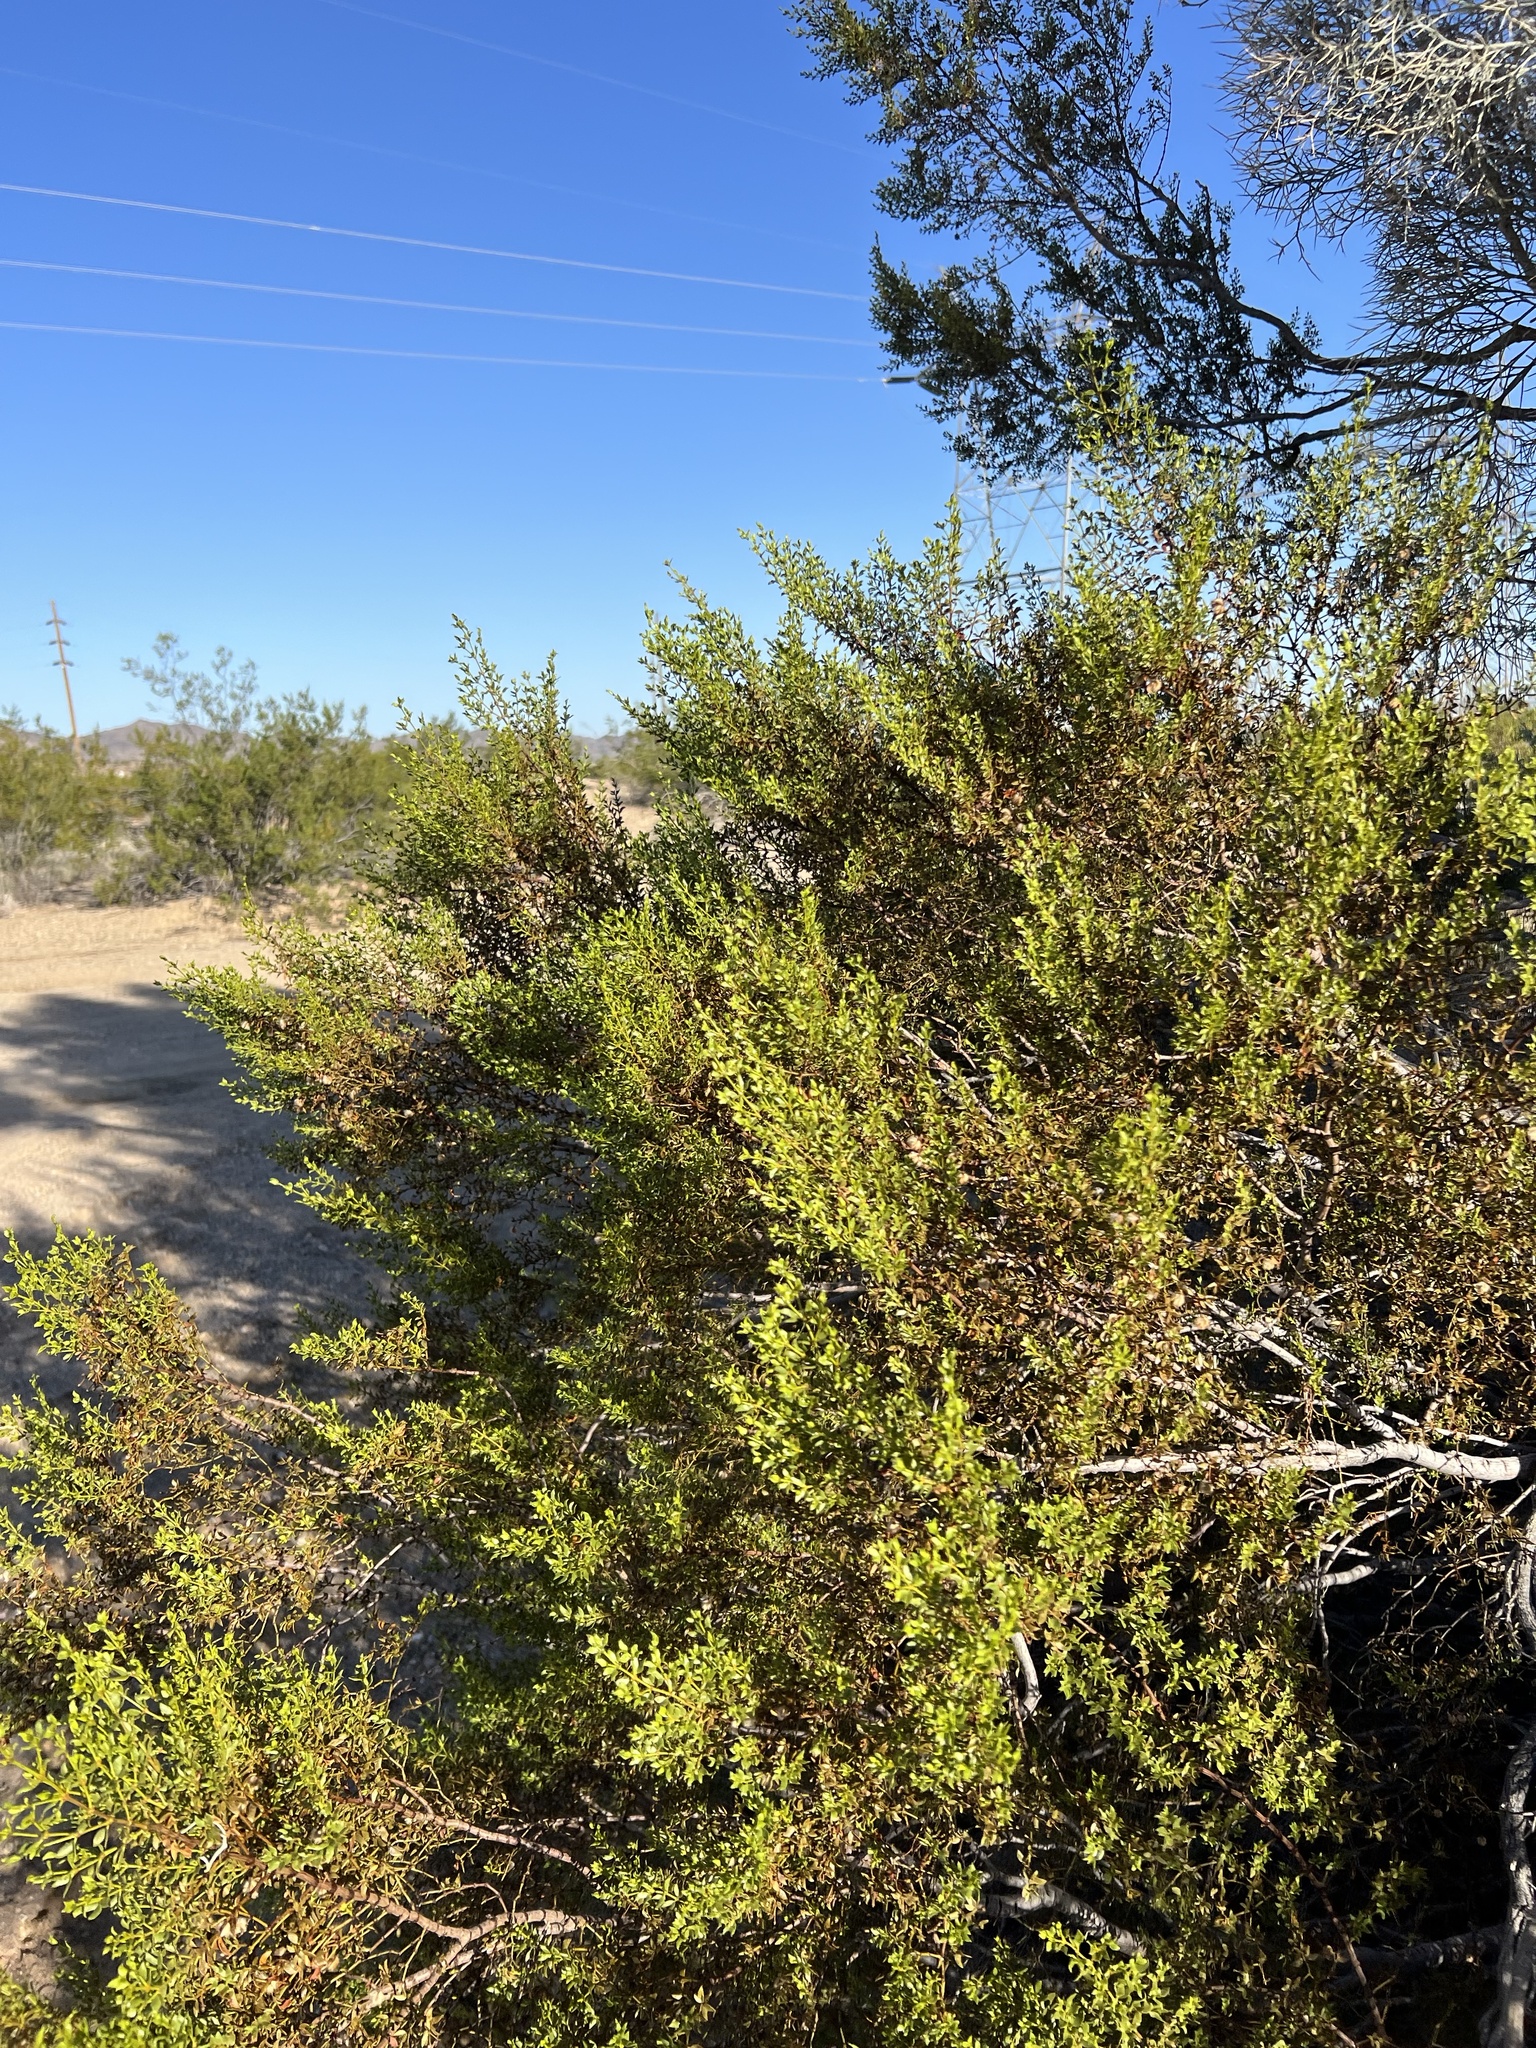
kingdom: Plantae
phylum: Tracheophyta
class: Magnoliopsida
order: Zygophyllales
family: Zygophyllaceae
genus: Larrea
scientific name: Larrea tridentata
